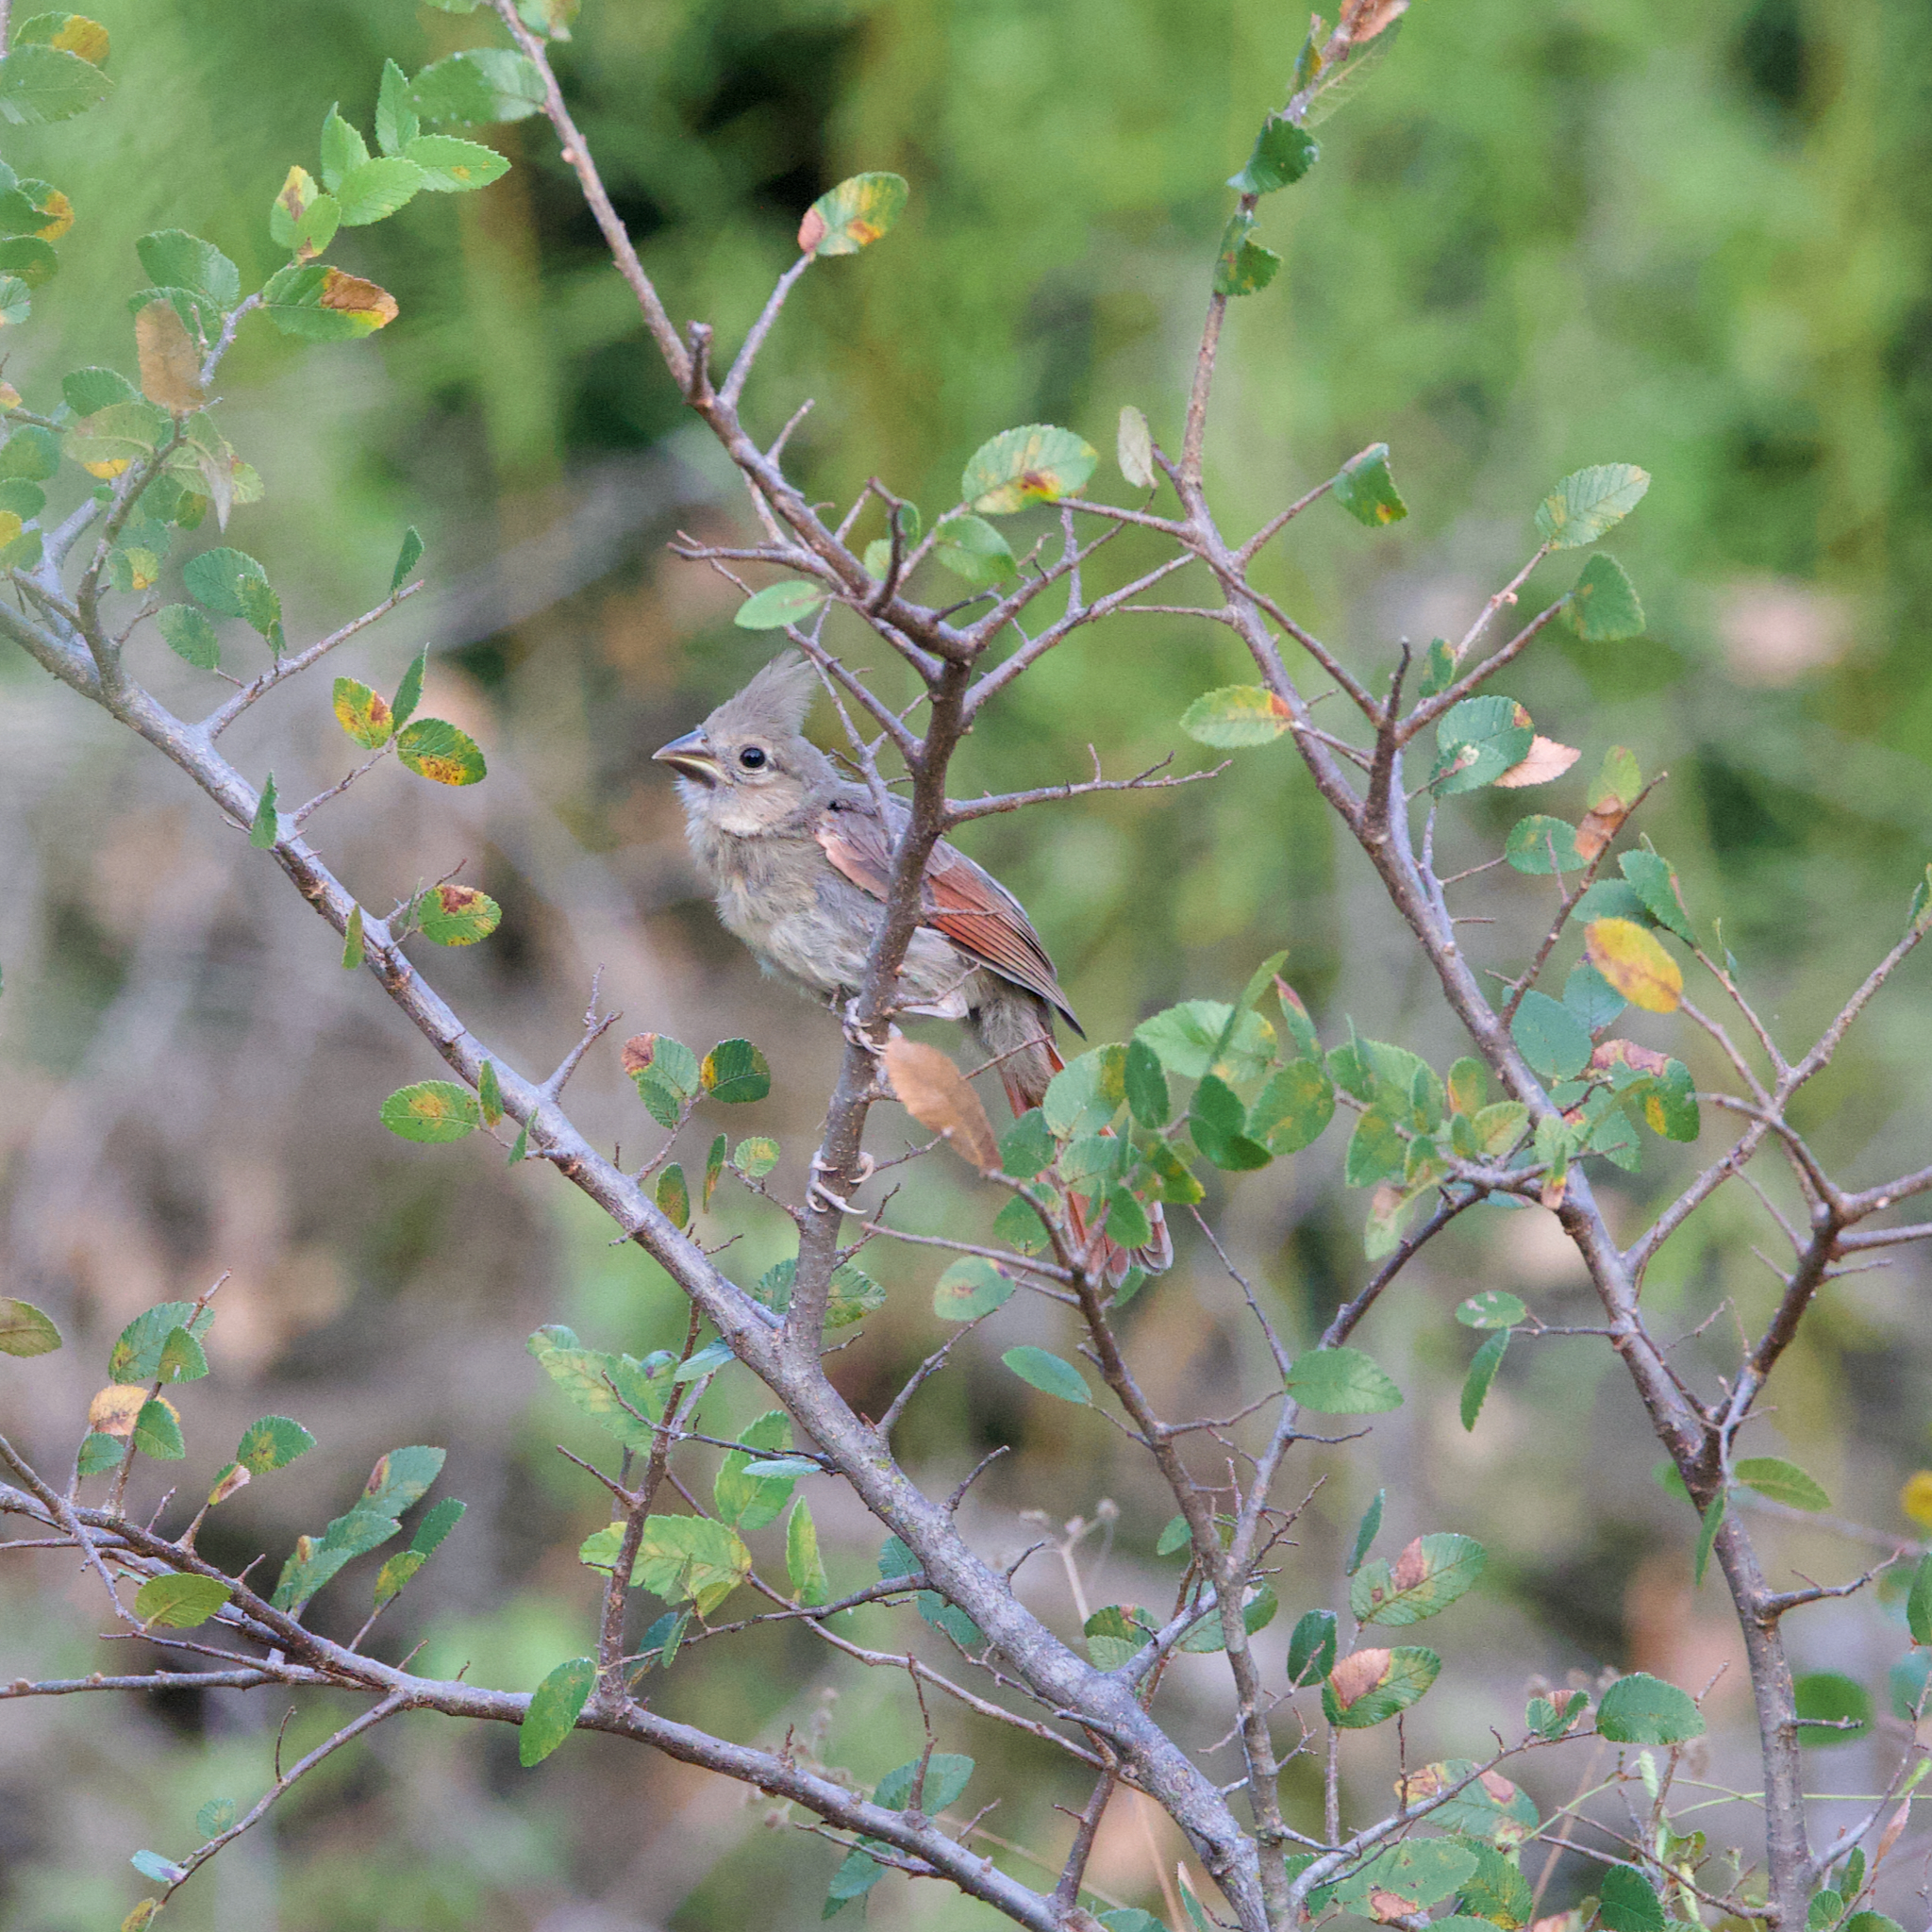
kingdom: Animalia
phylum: Chordata
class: Aves
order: Passeriformes
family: Cardinalidae
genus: Cardinalis
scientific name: Cardinalis cardinalis
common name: Northern cardinal
